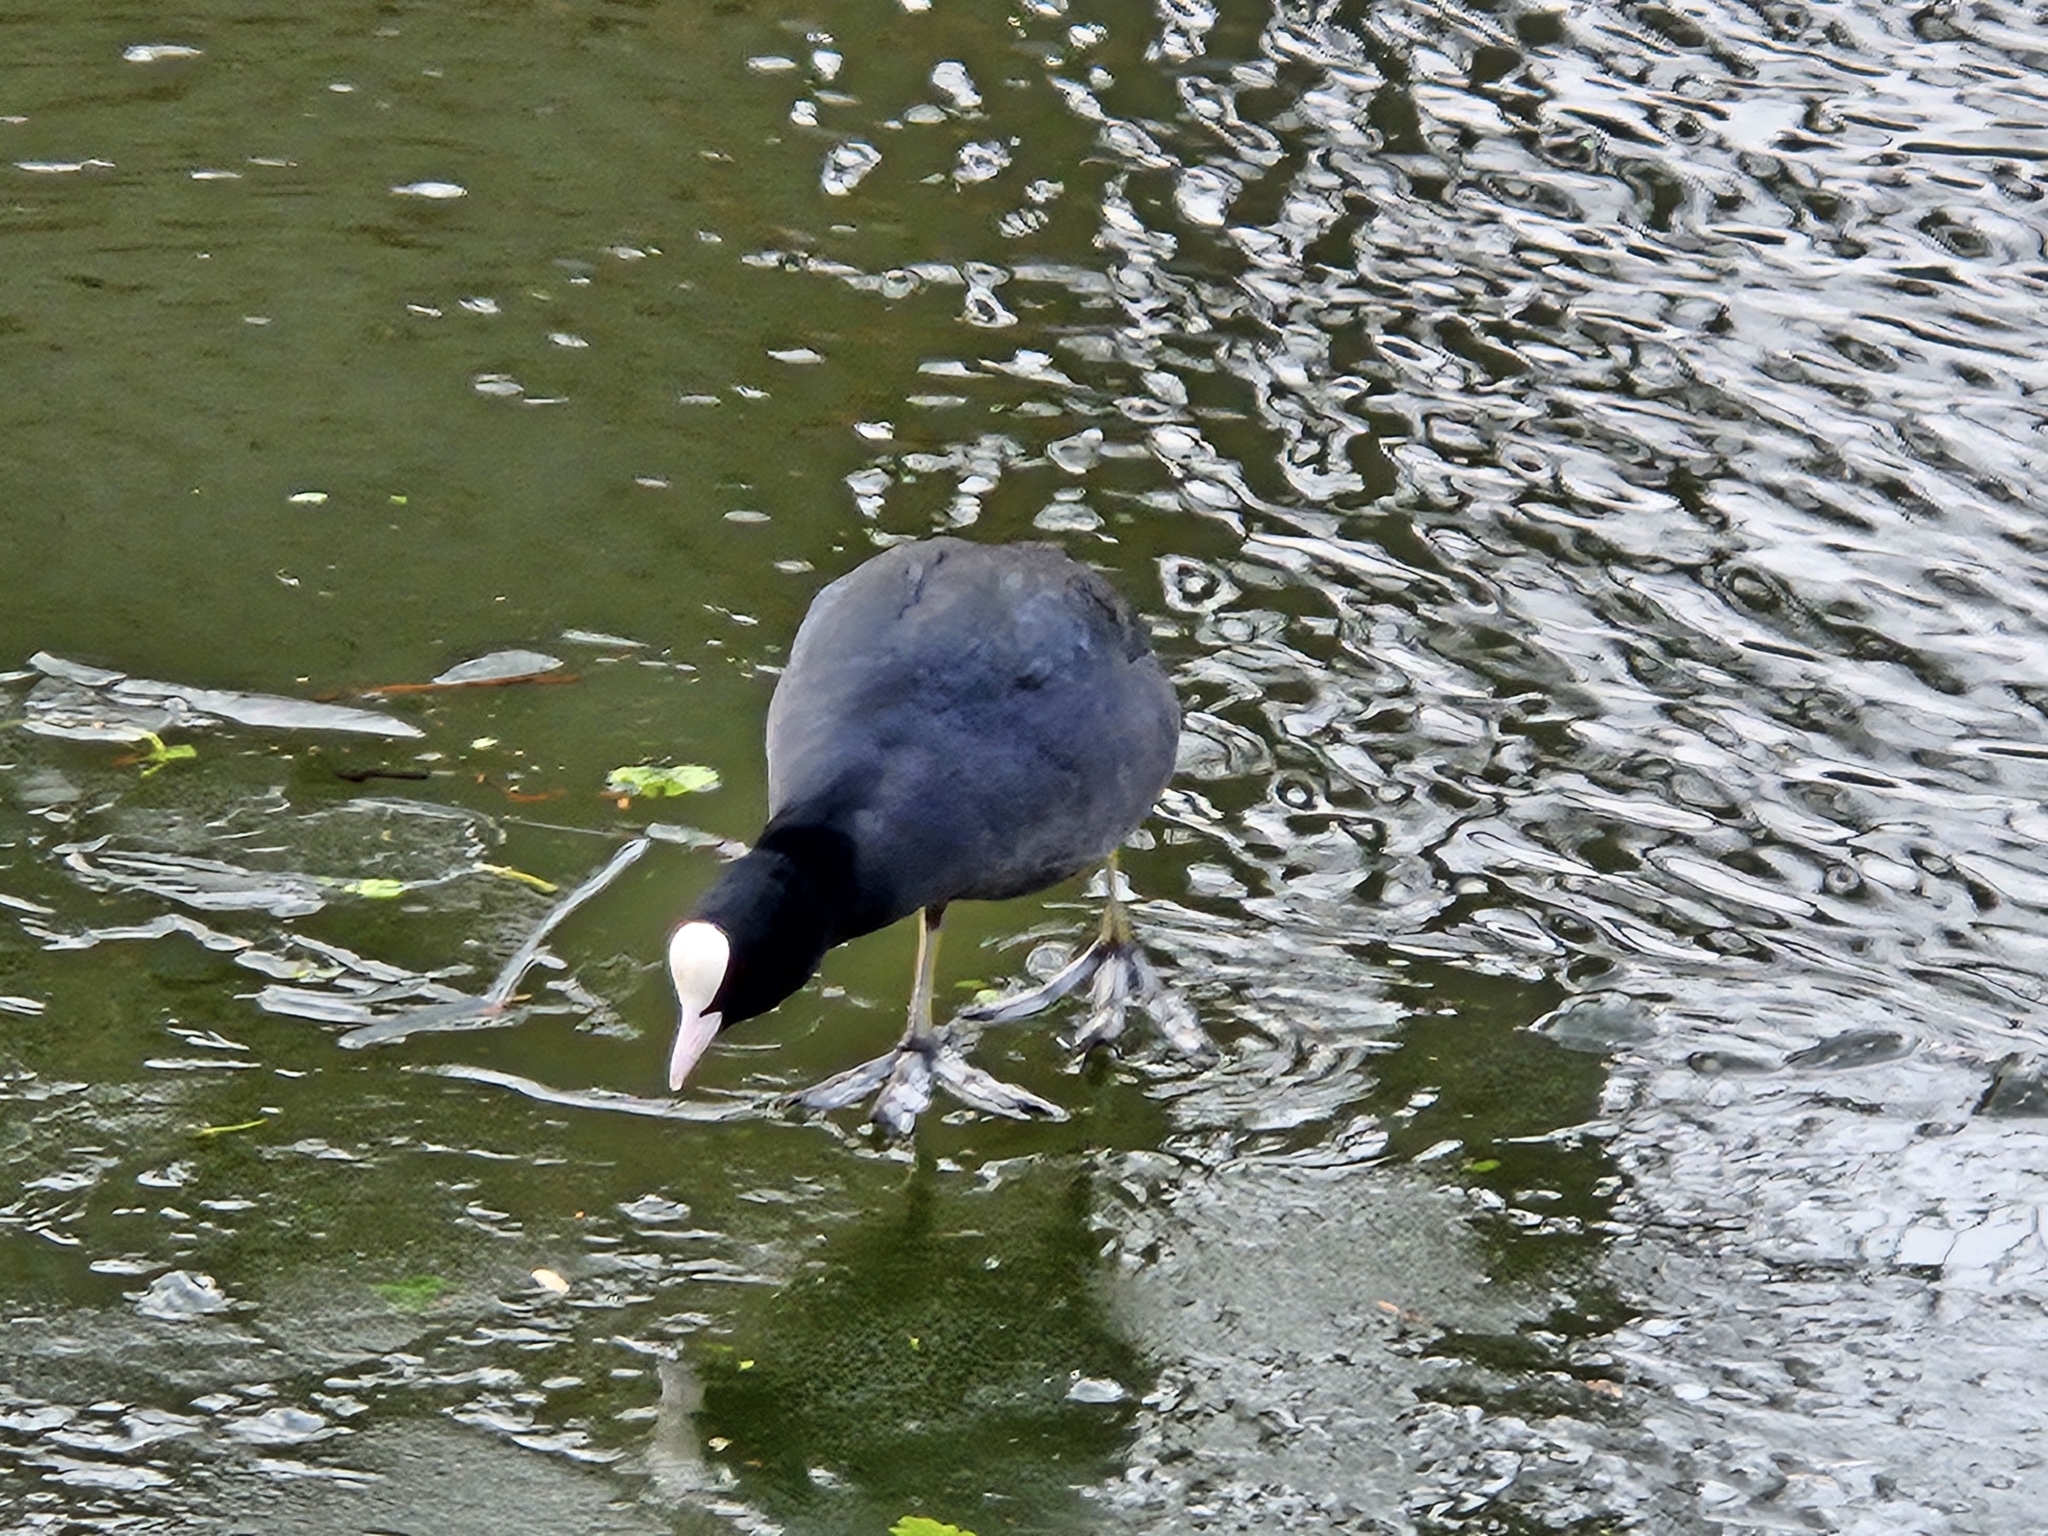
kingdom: Animalia
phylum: Chordata
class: Aves
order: Gruiformes
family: Rallidae
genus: Fulica
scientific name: Fulica atra
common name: Eurasian coot
